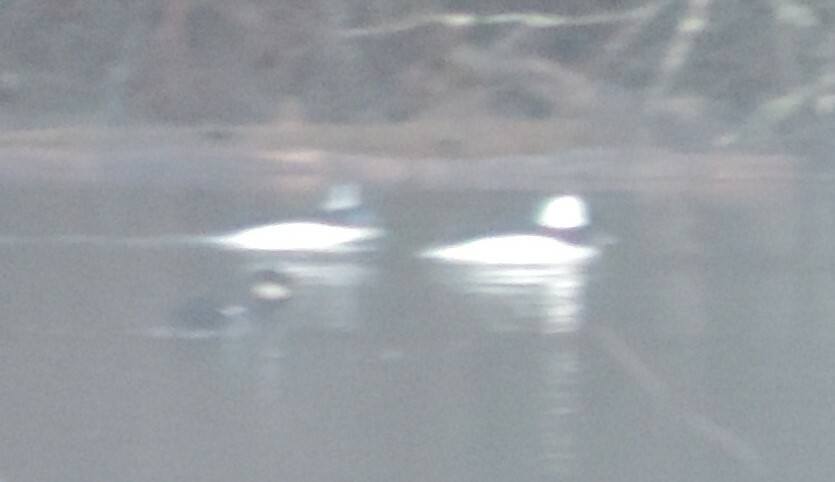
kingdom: Animalia
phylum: Chordata
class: Aves
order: Anseriformes
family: Anatidae
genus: Bucephala
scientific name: Bucephala albeola
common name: Bufflehead
